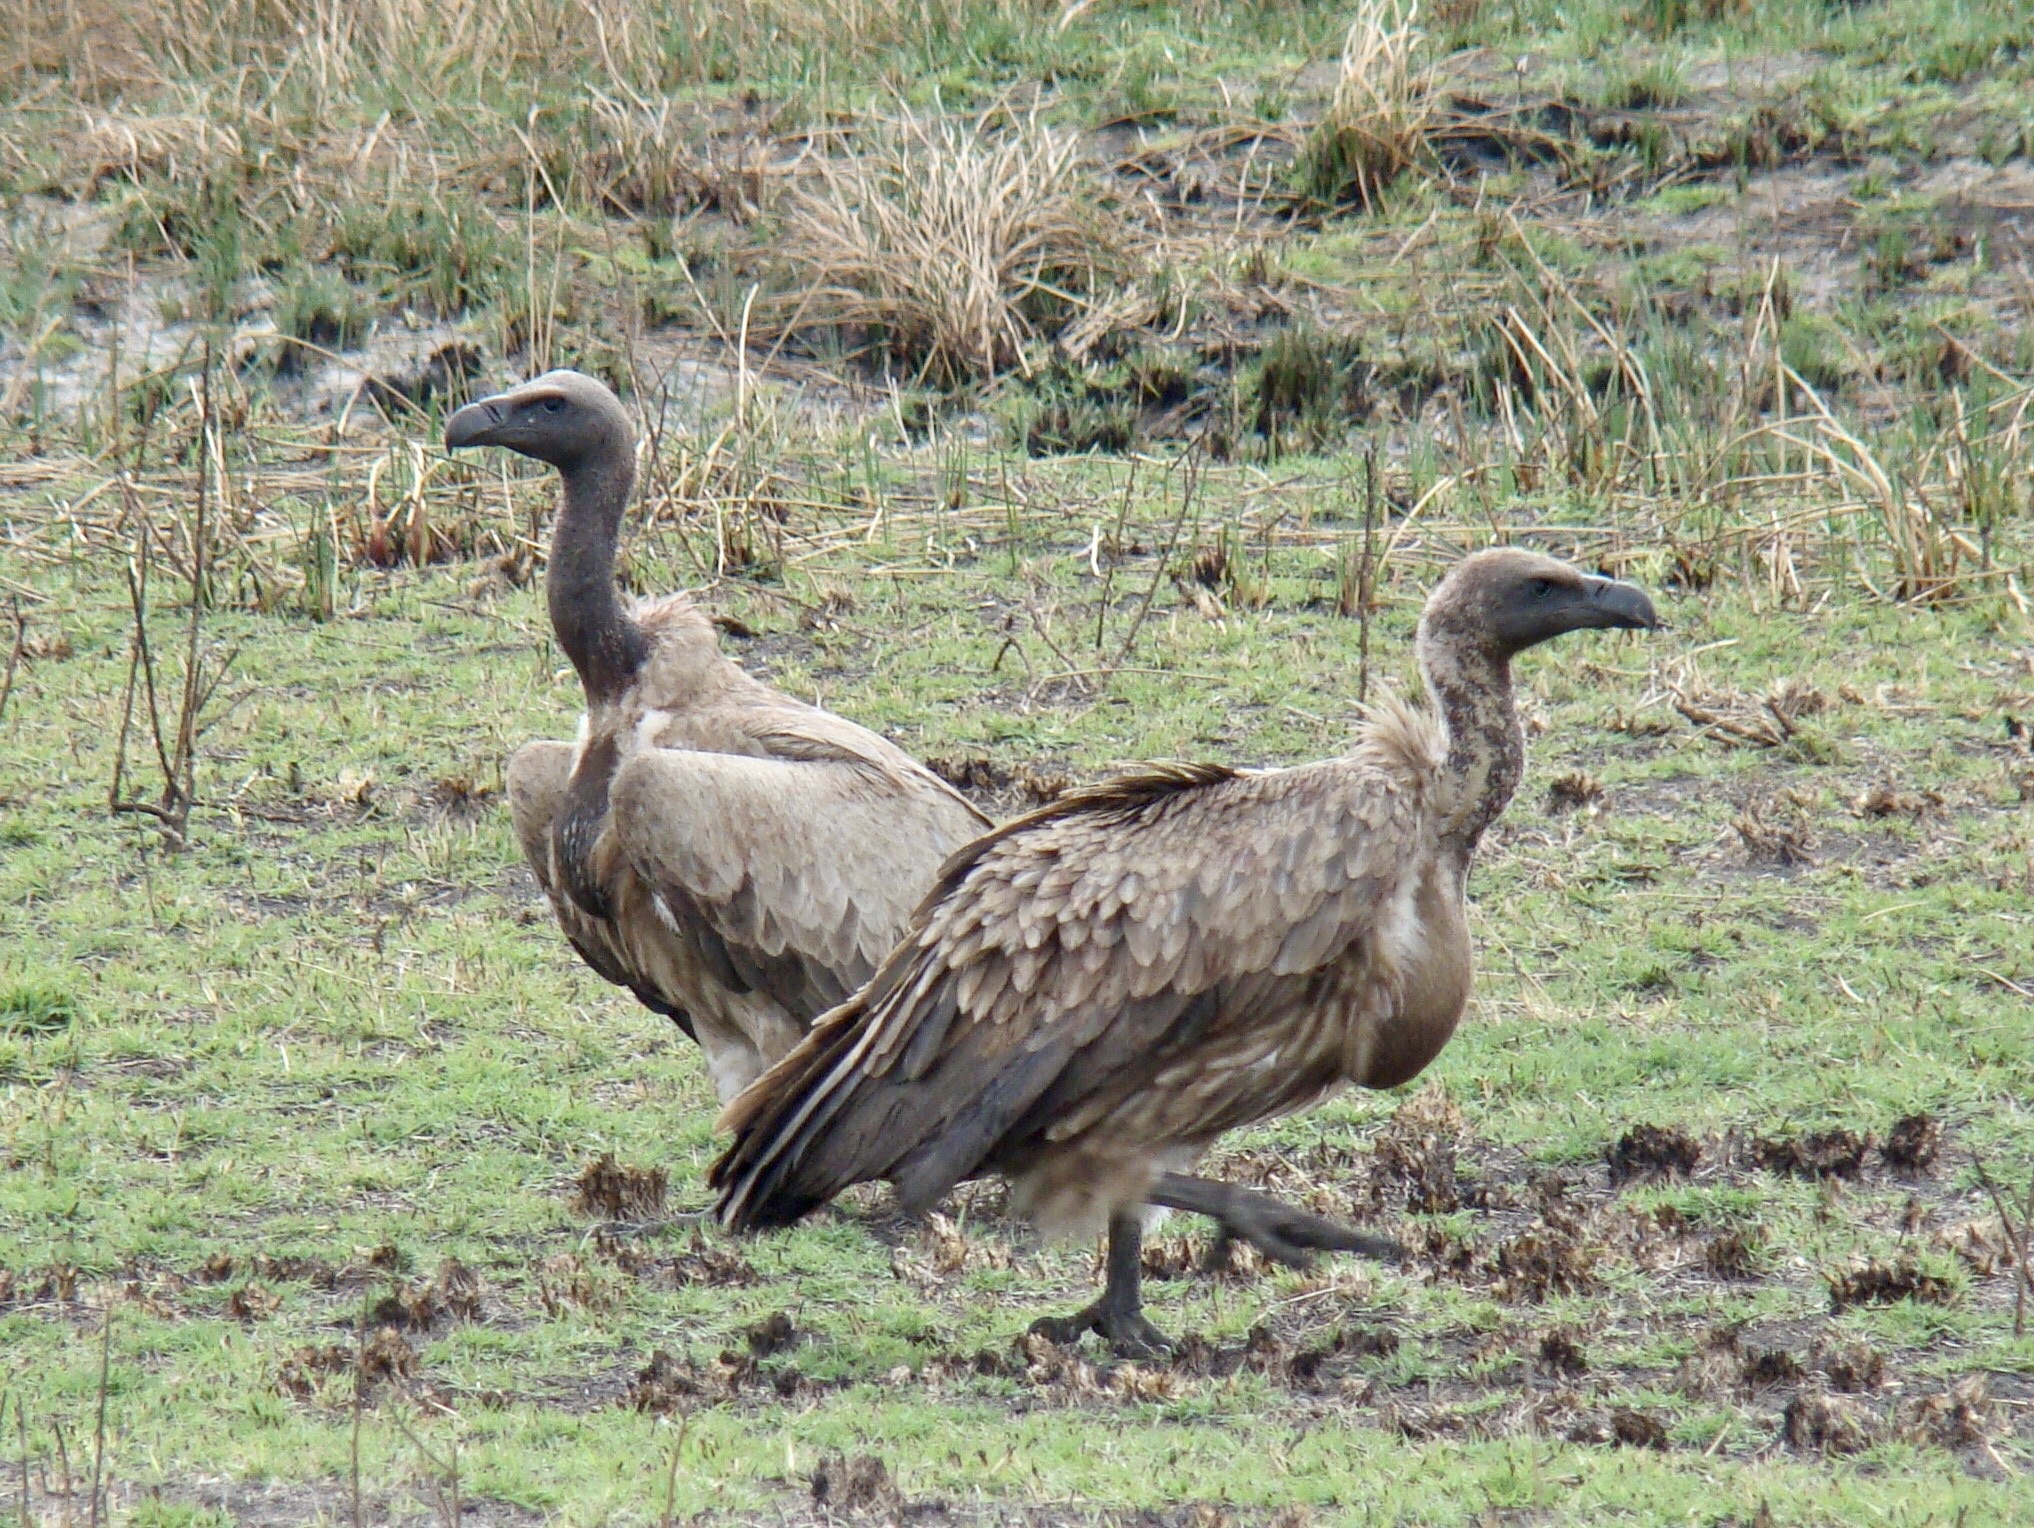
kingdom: Animalia
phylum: Chordata
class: Aves
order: Accipitriformes
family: Accipitridae
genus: Gyps
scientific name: Gyps africanus
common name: White-backed vulture
